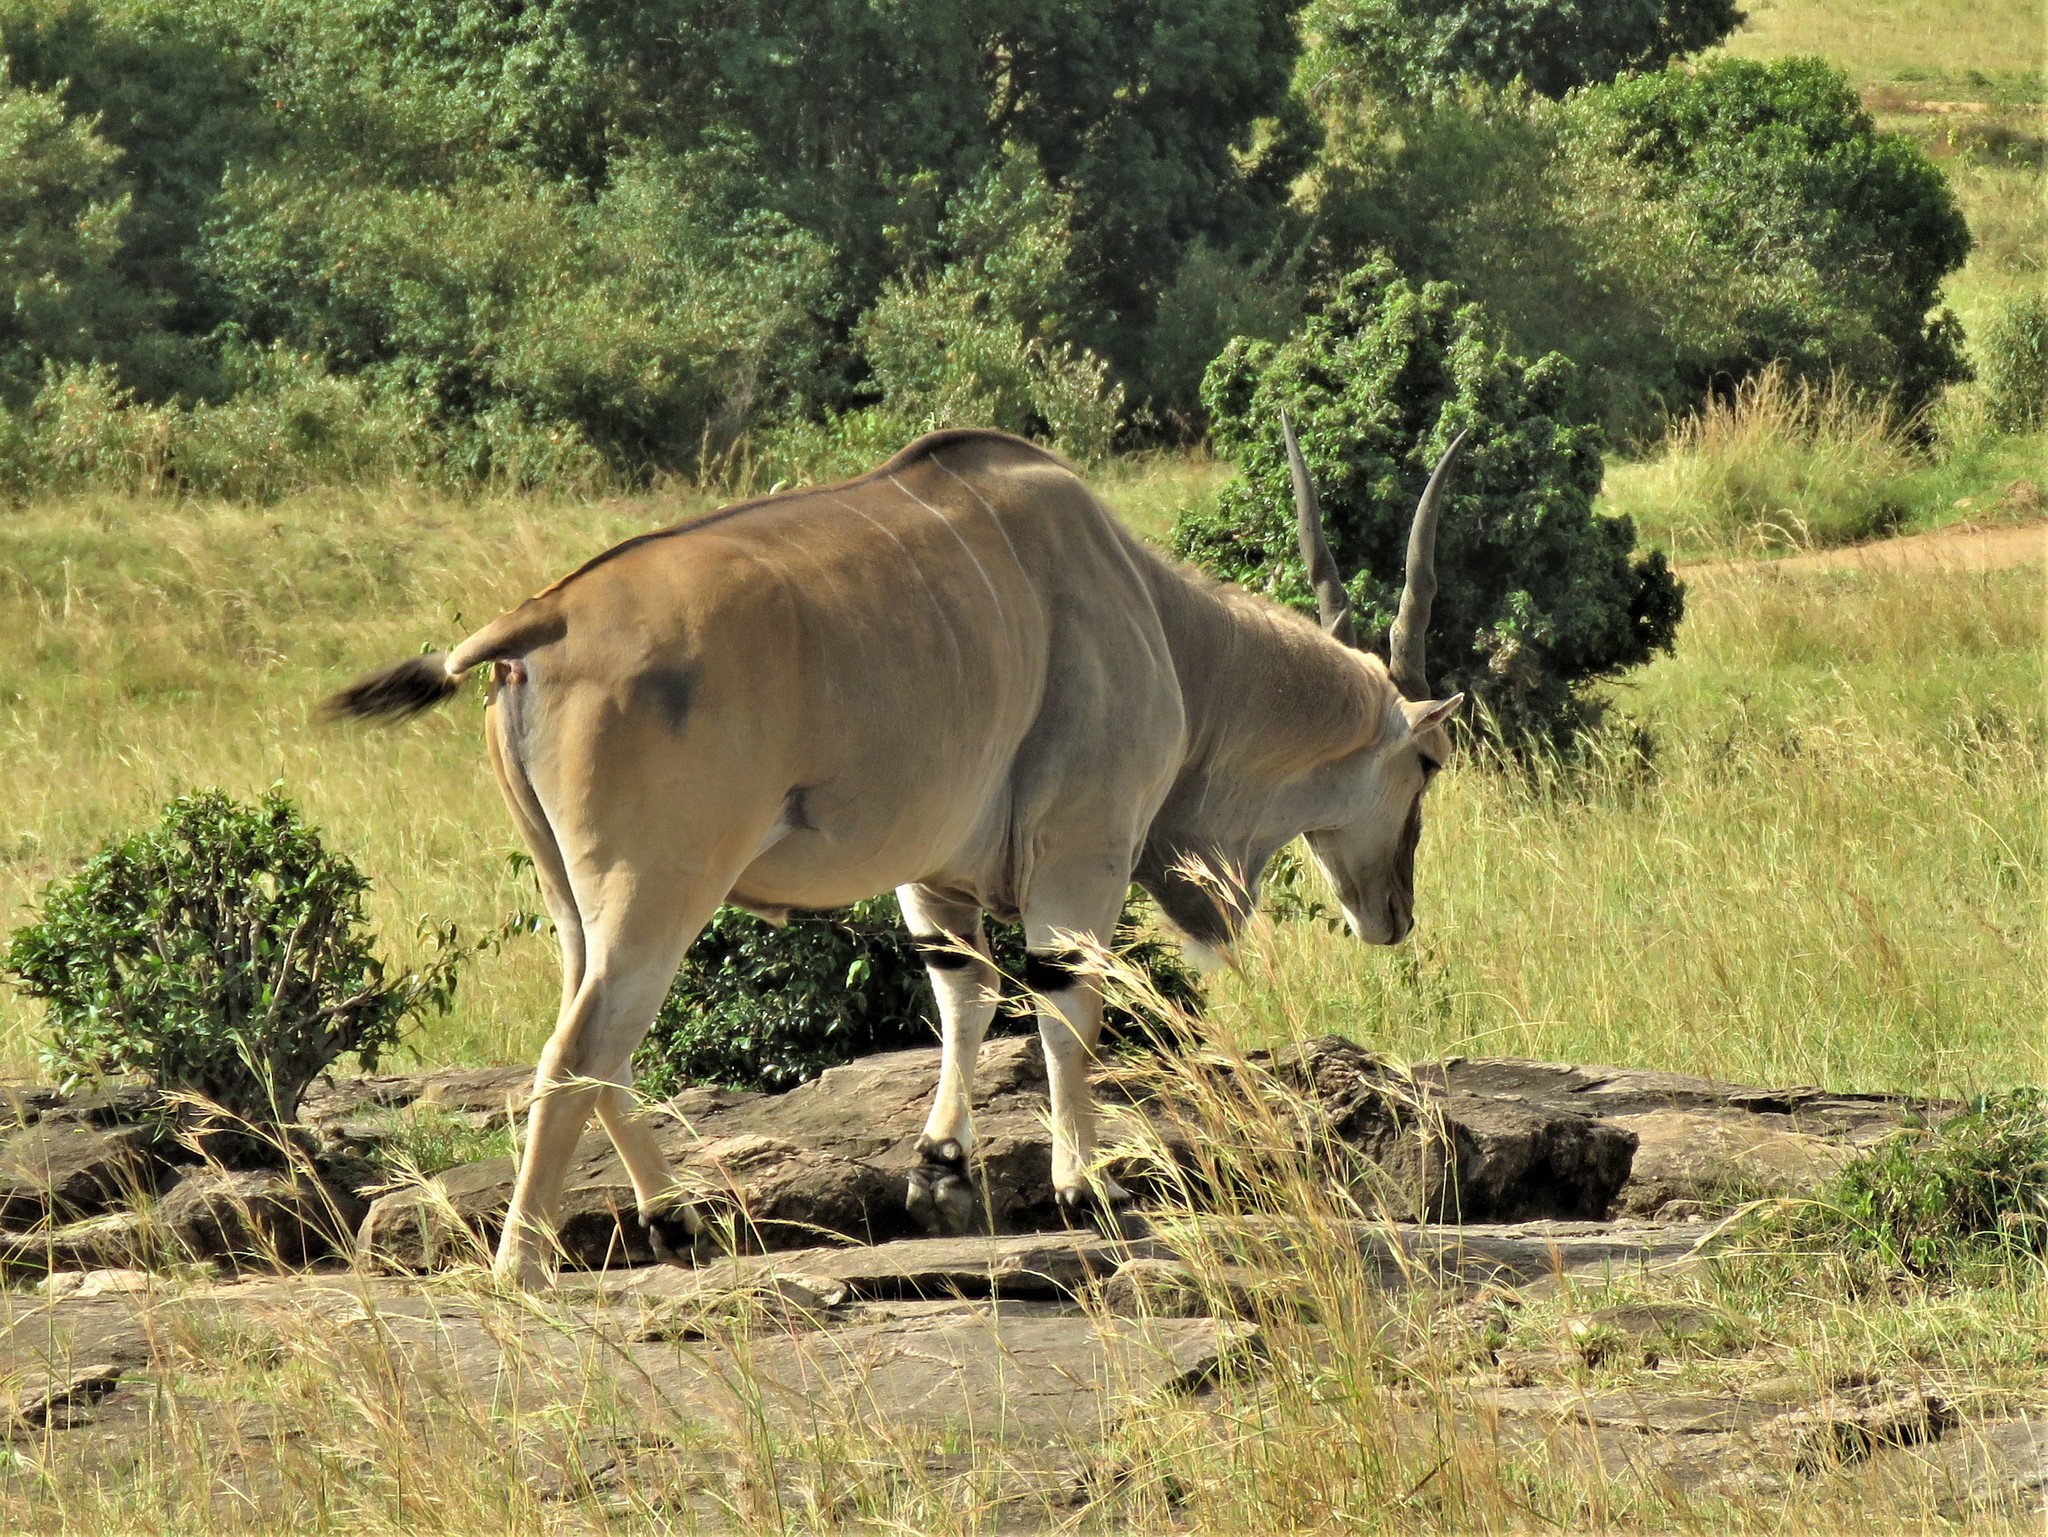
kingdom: Animalia
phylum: Chordata
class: Mammalia
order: Artiodactyla
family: Bovidae
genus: Taurotragus
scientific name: Taurotragus oryx
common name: Common eland
